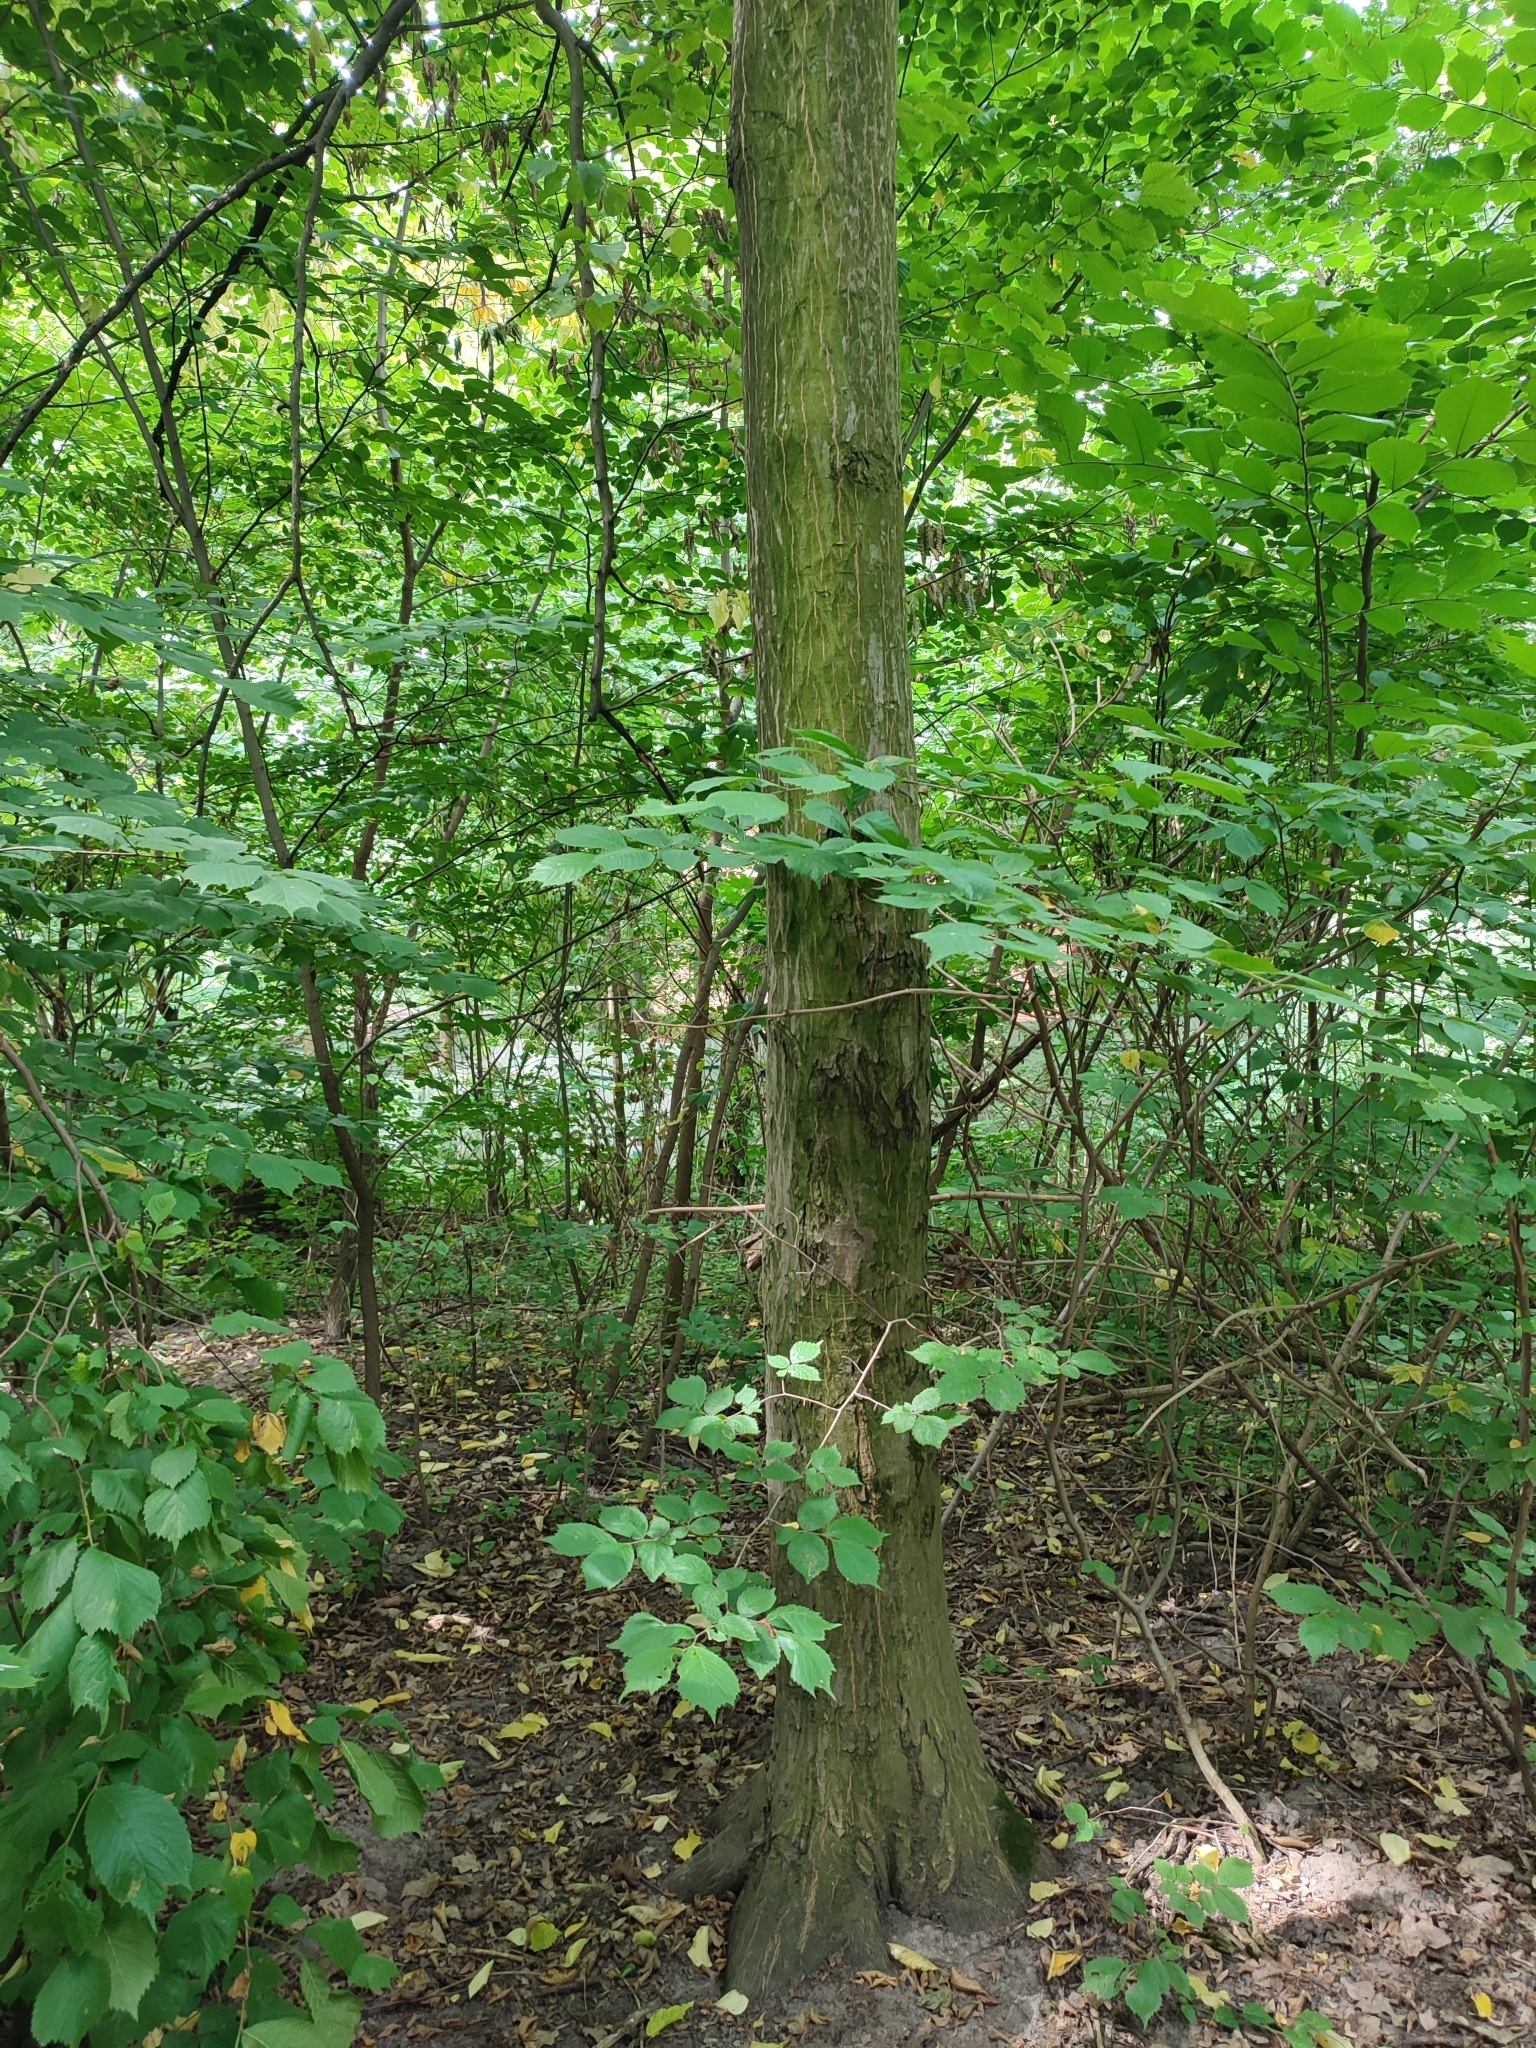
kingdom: Plantae
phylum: Tracheophyta
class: Magnoliopsida
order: Fagales
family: Betulaceae
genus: Carpinus
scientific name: Carpinus betulus
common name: Hornbeam
